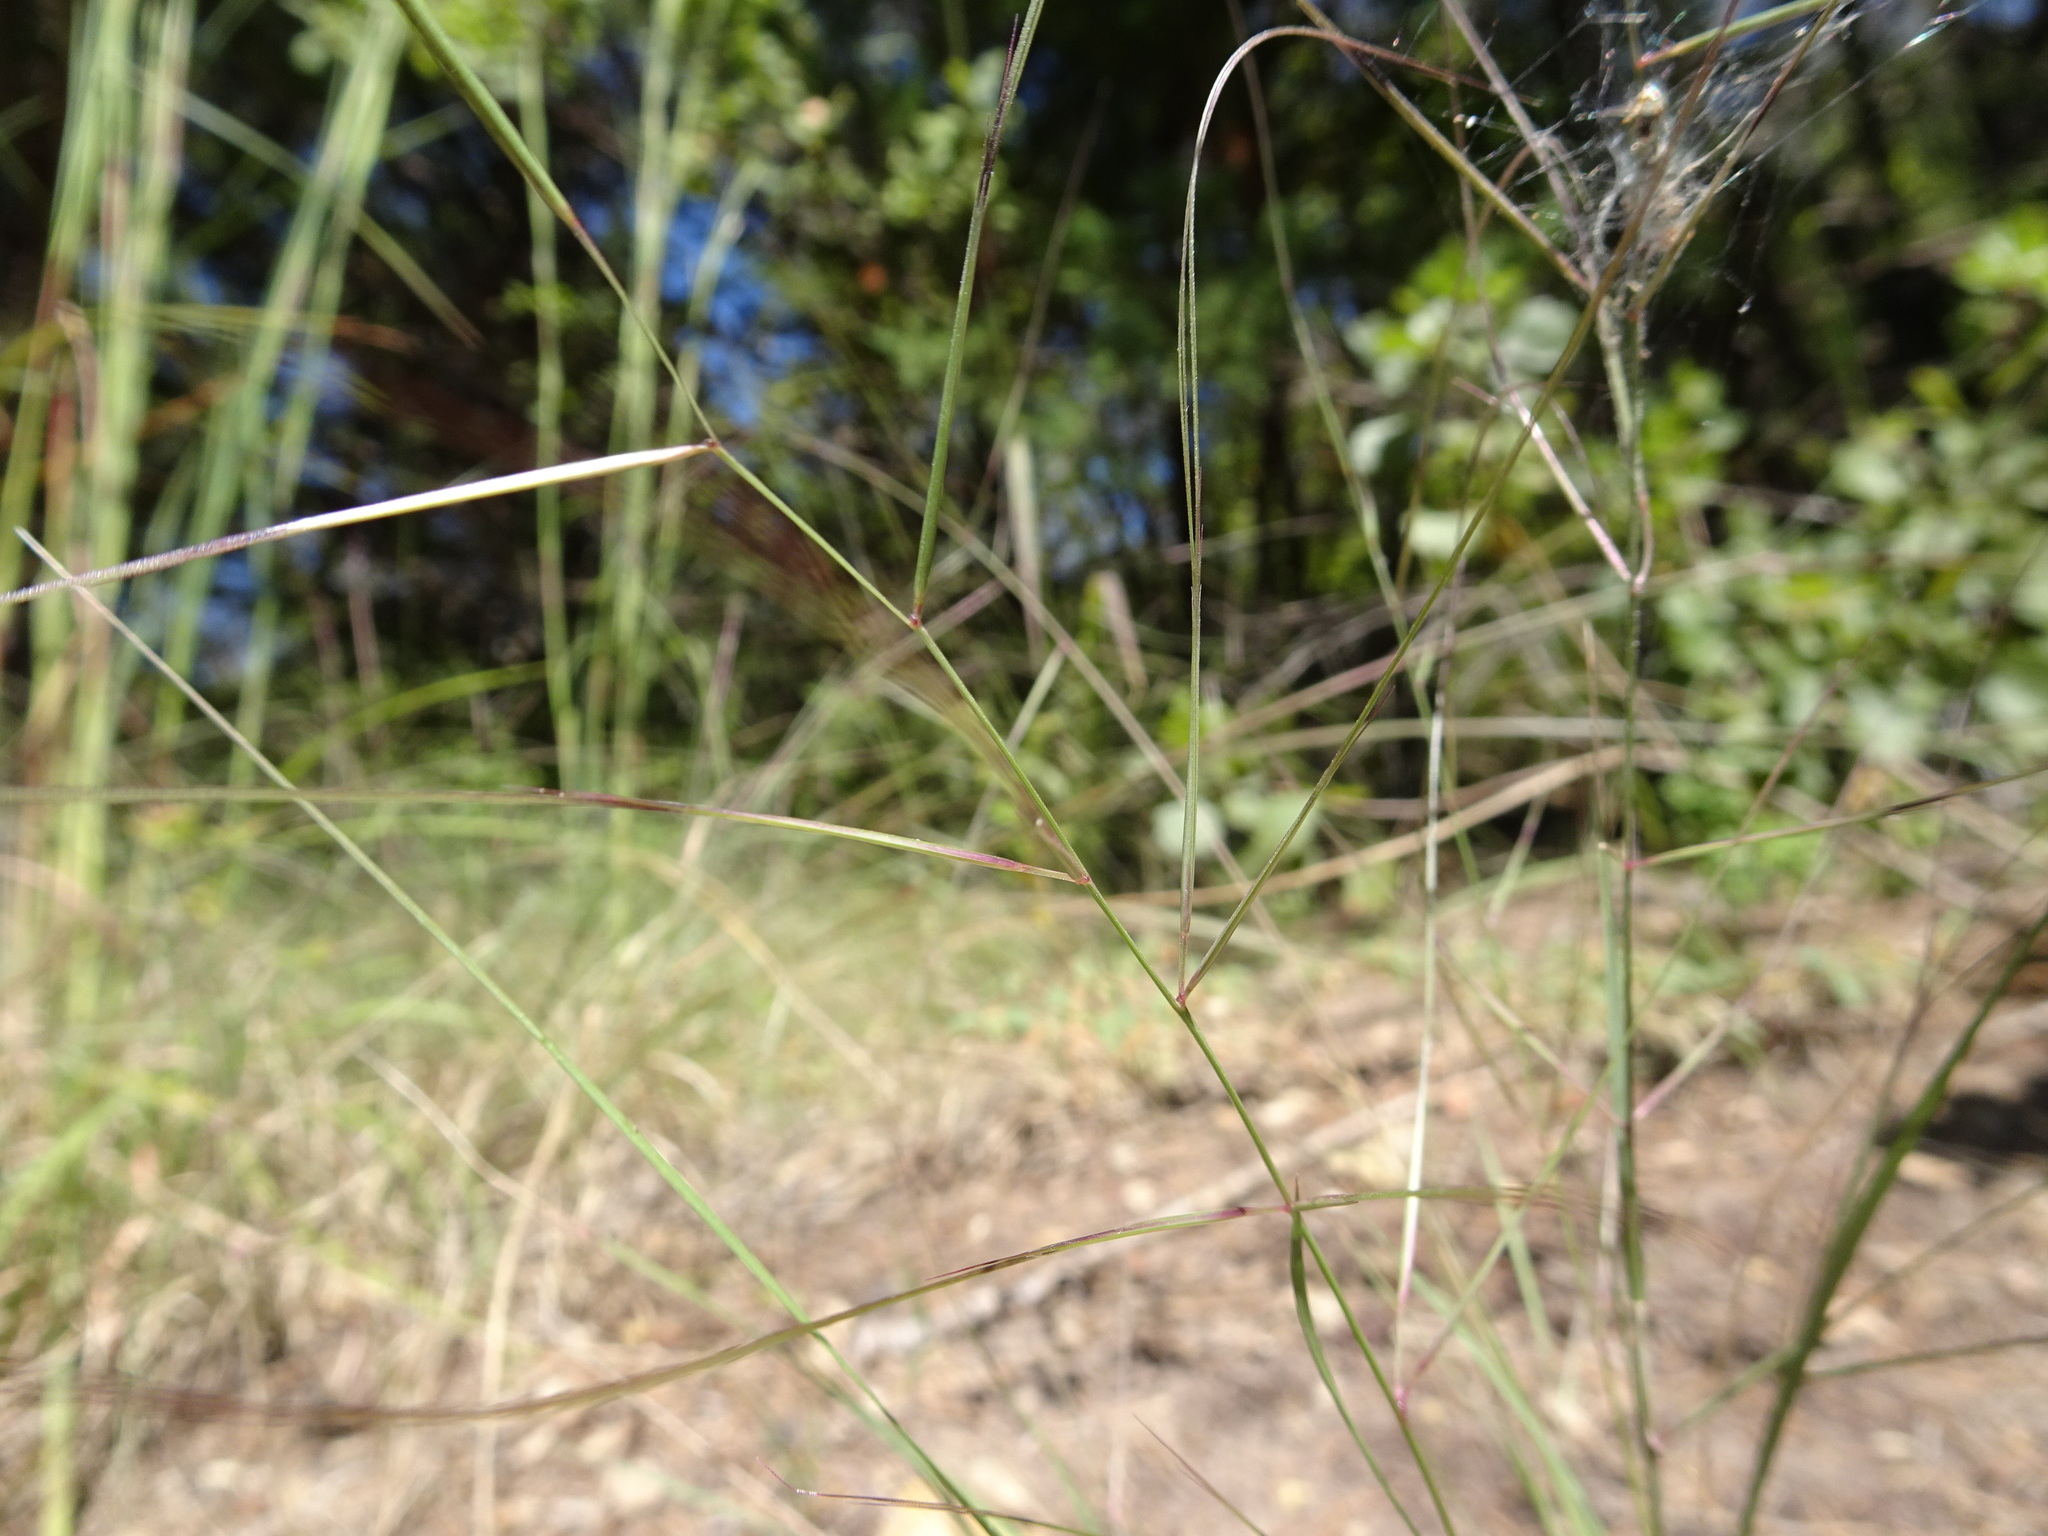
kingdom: Plantae
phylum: Tracheophyta
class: Liliopsida
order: Poales
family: Poaceae
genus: Aristida
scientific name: Aristida oligantha
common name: Few-flowered aristida
